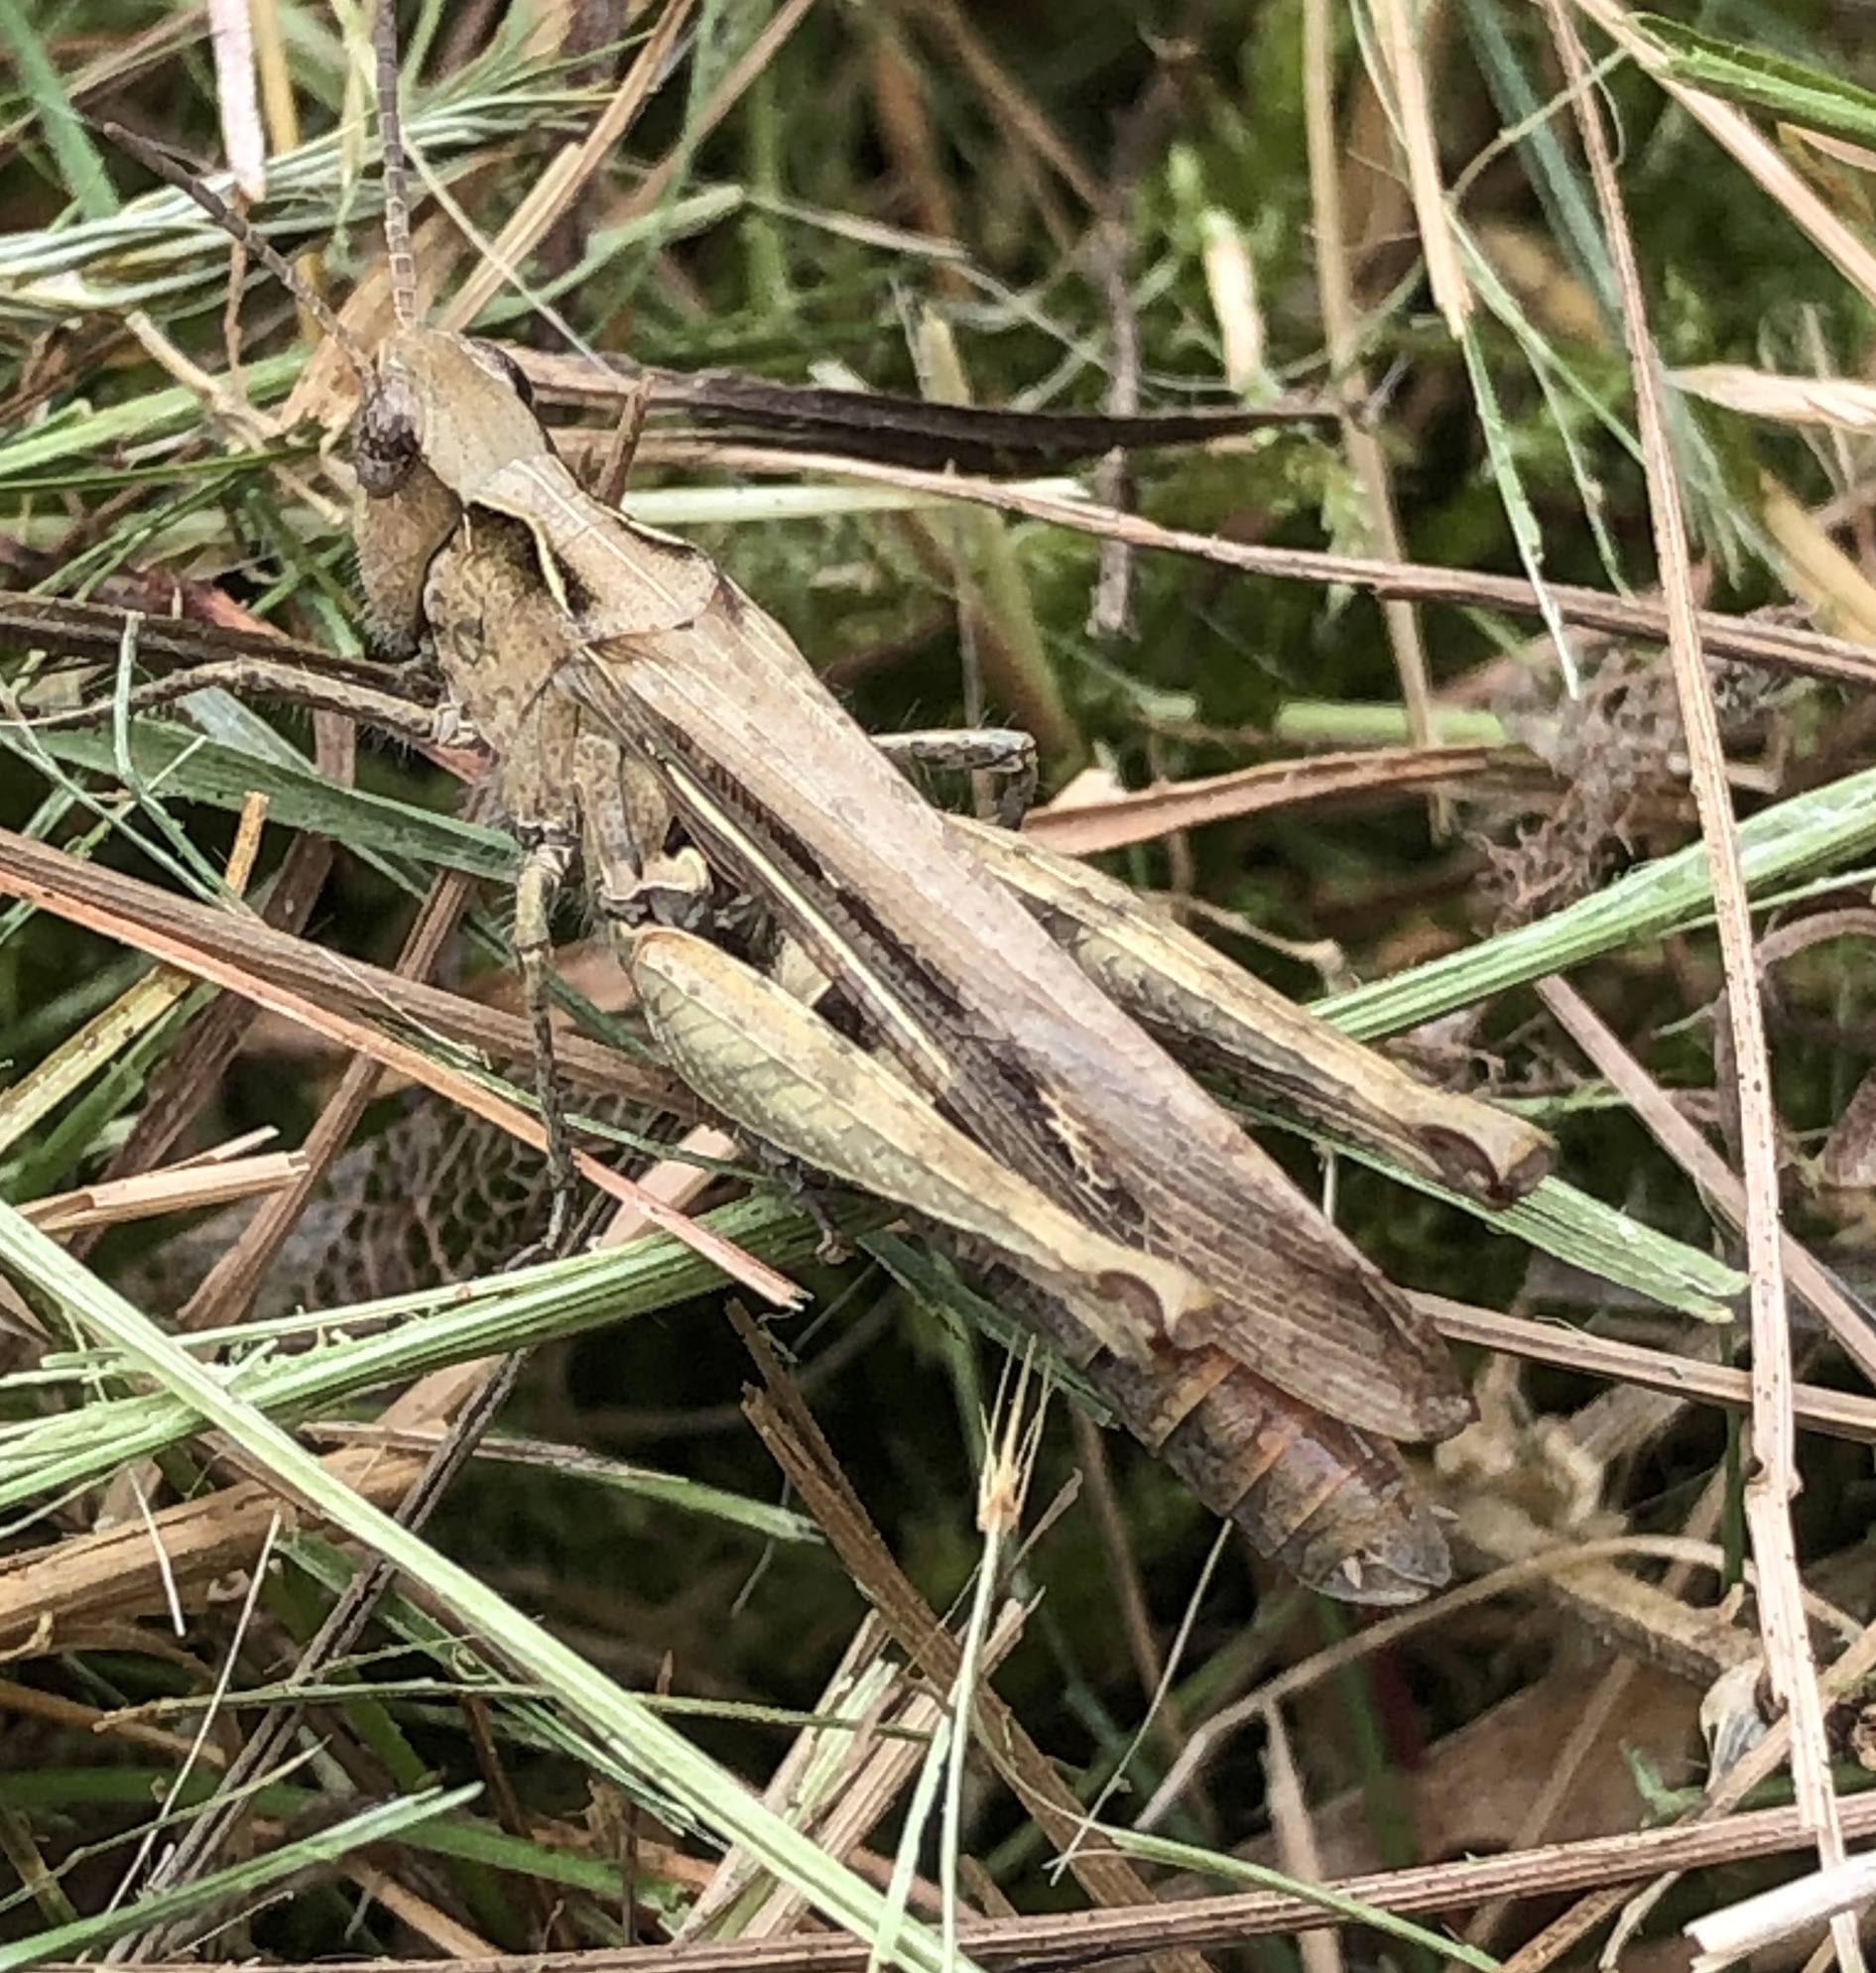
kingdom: Animalia
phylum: Arthropoda
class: Insecta
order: Orthoptera
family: Acrididae
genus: Chorthippus
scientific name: Chorthippus brunneus
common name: Field grasshopper
